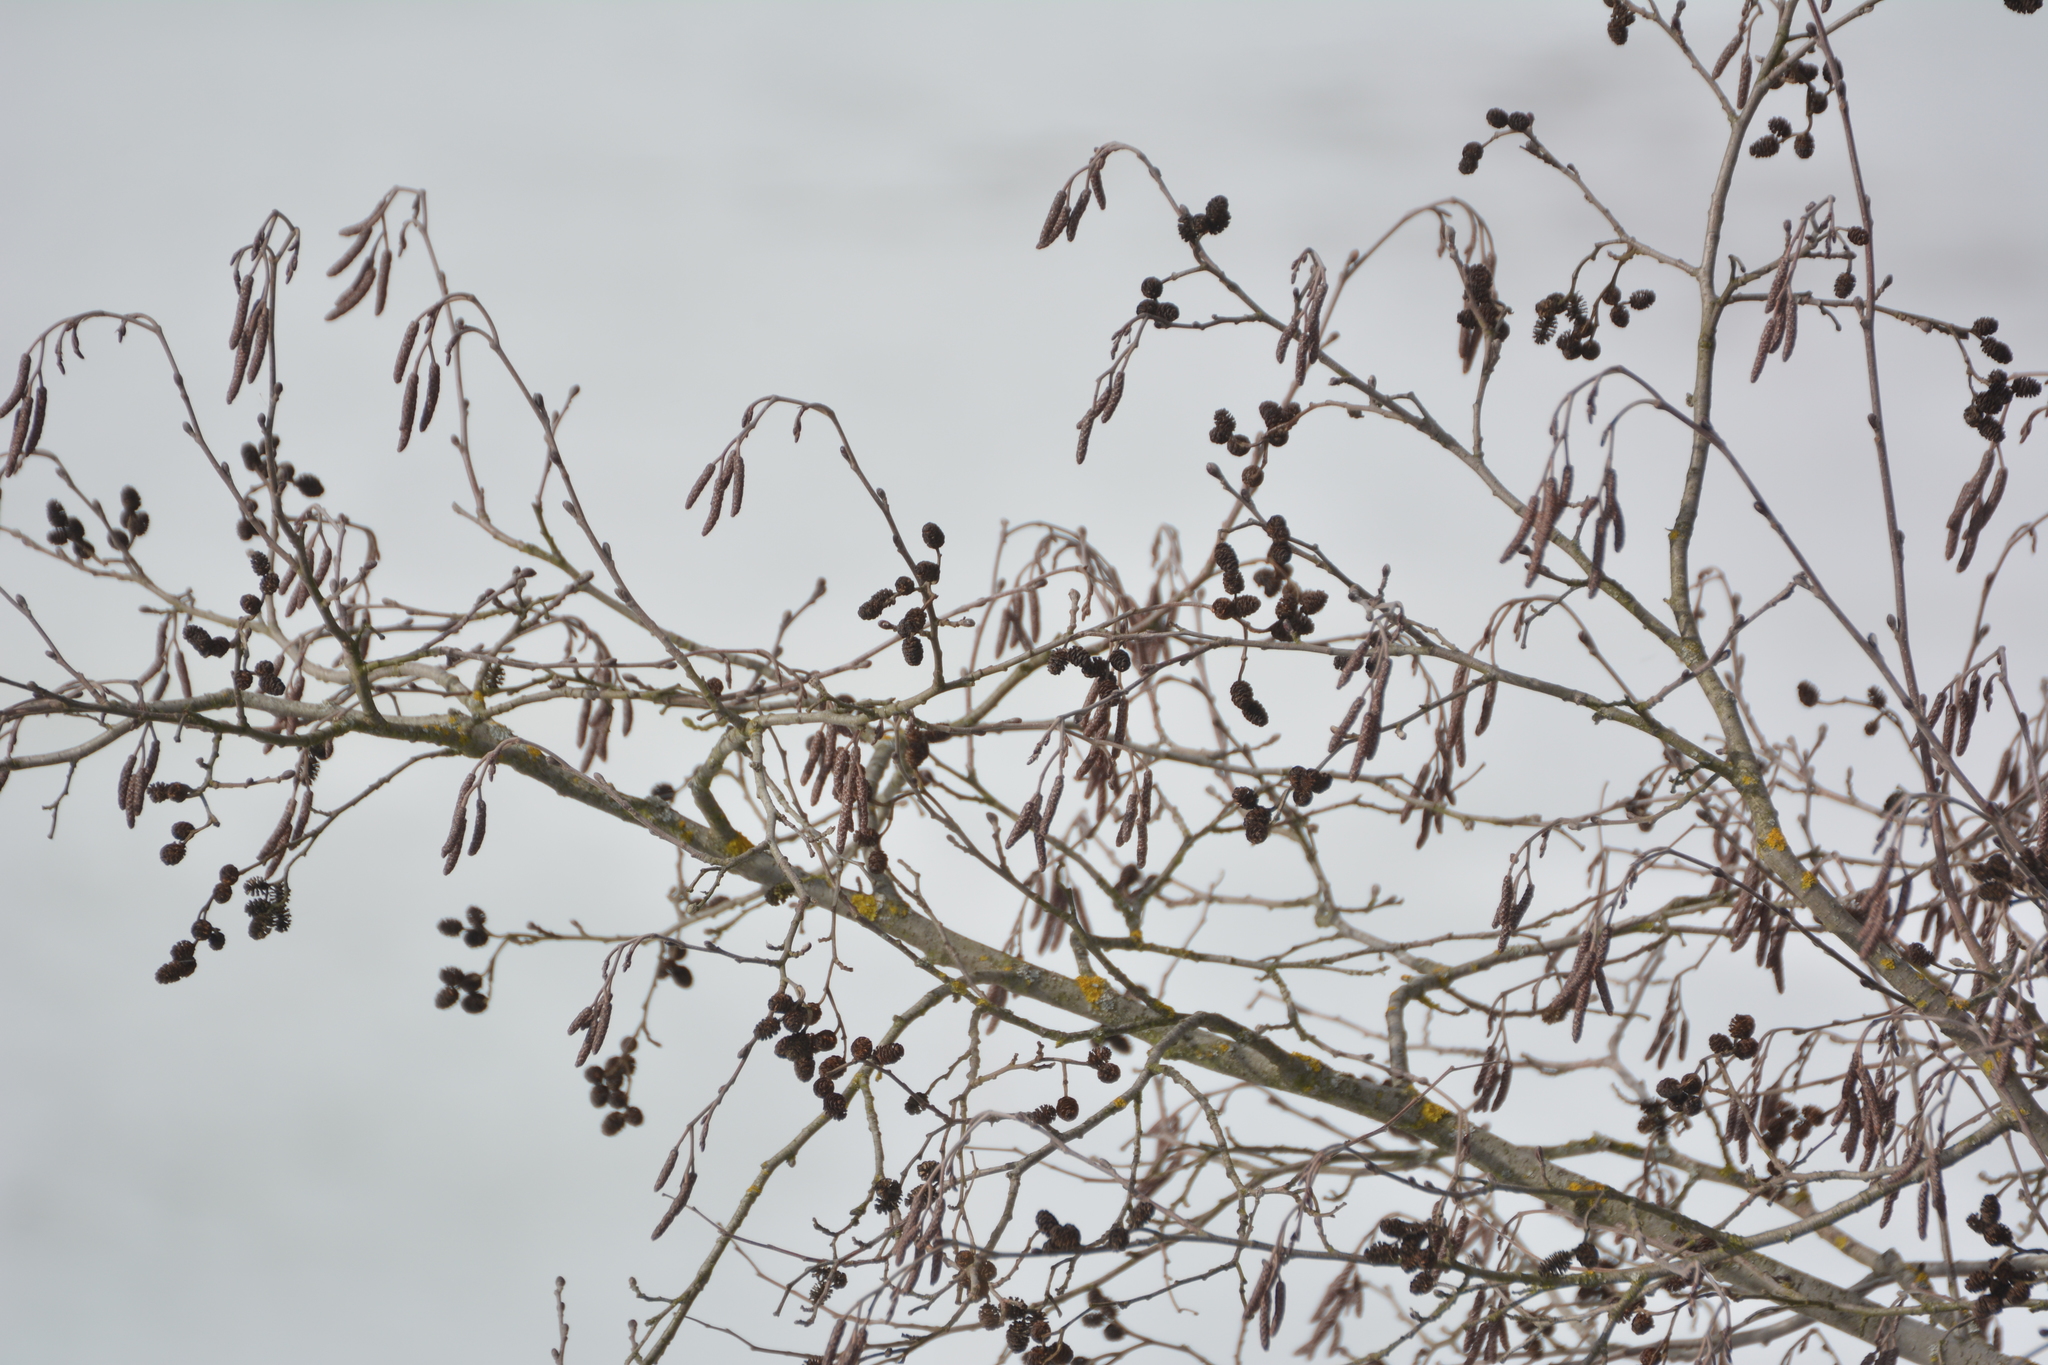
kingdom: Plantae
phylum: Tracheophyta
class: Magnoliopsida
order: Fagales
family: Betulaceae
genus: Alnus
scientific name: Alnus incana
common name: Grey alder
